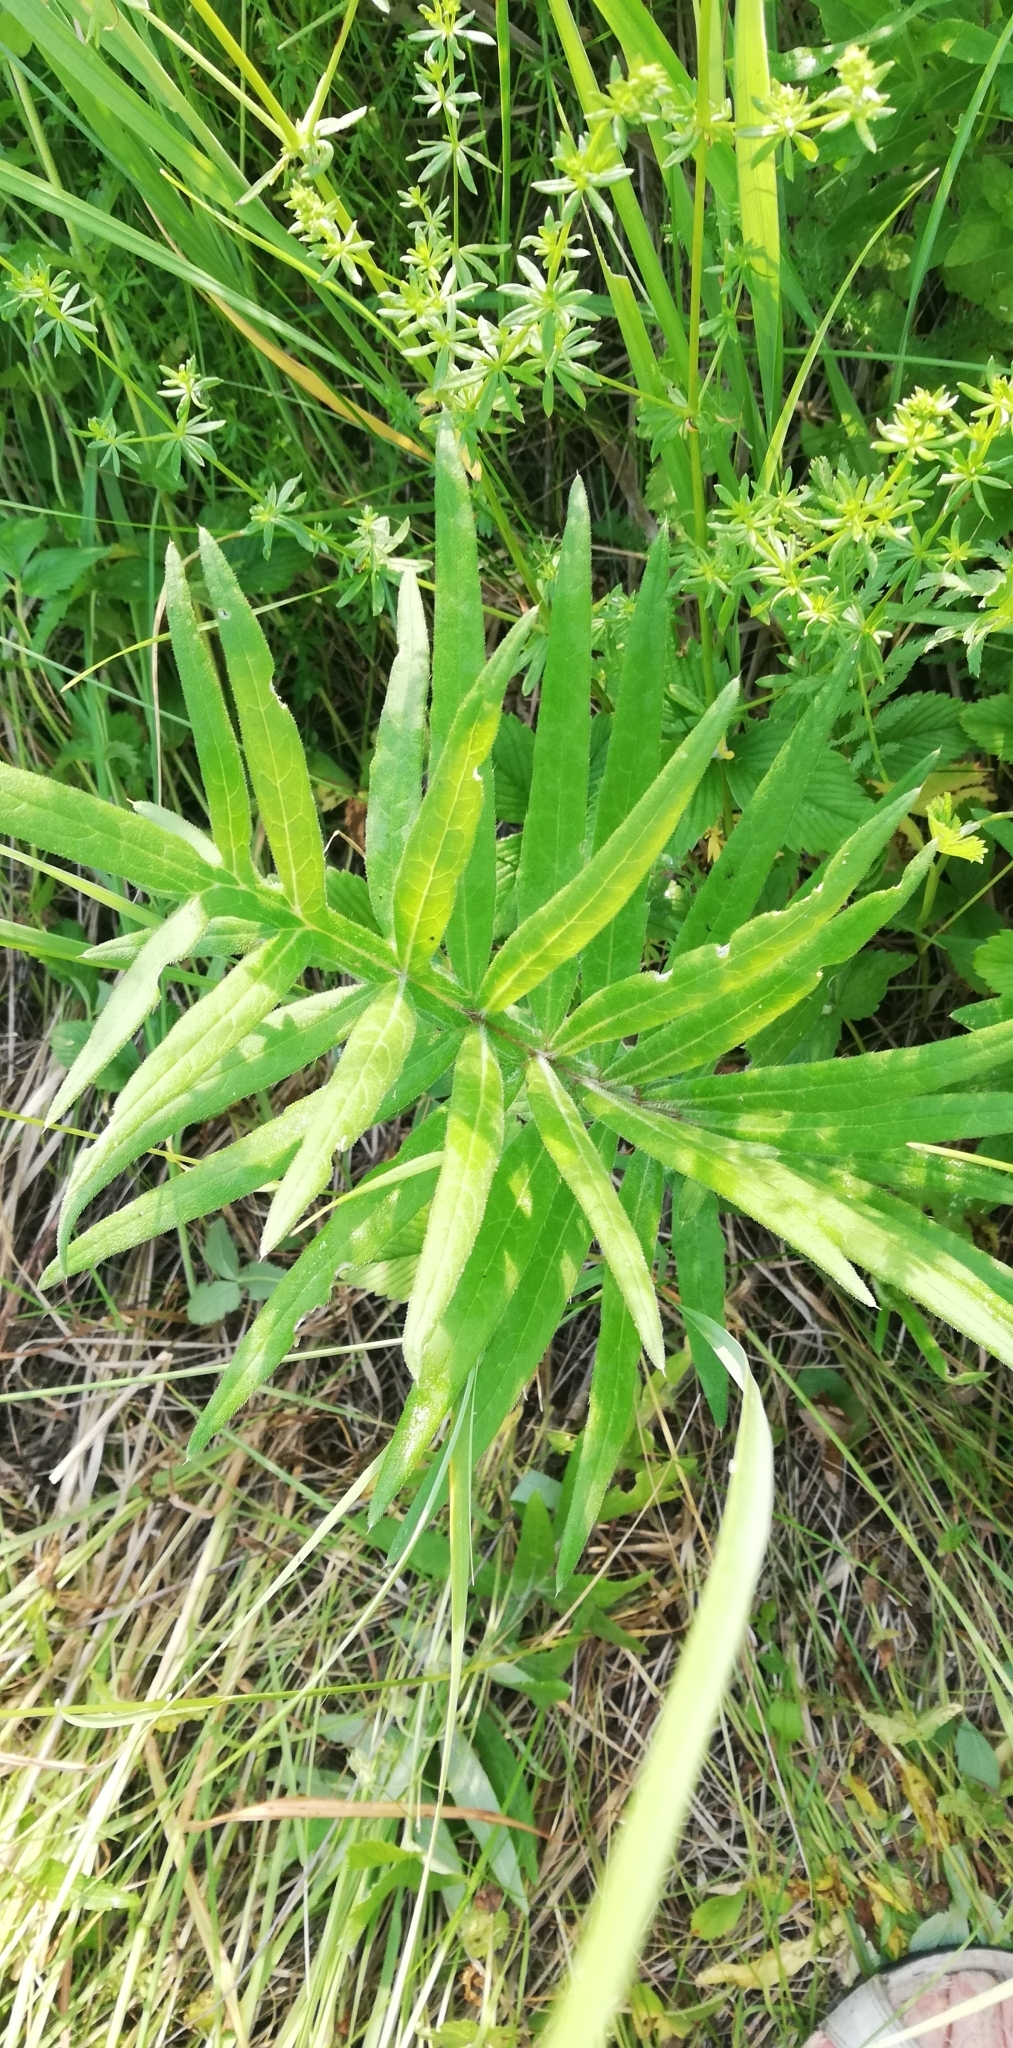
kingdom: Plantae
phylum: Tracheophyta
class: Magnoliopsida
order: Asterales
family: Asteraceae
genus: Lophiolepis
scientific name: Lophiolepis decussata
